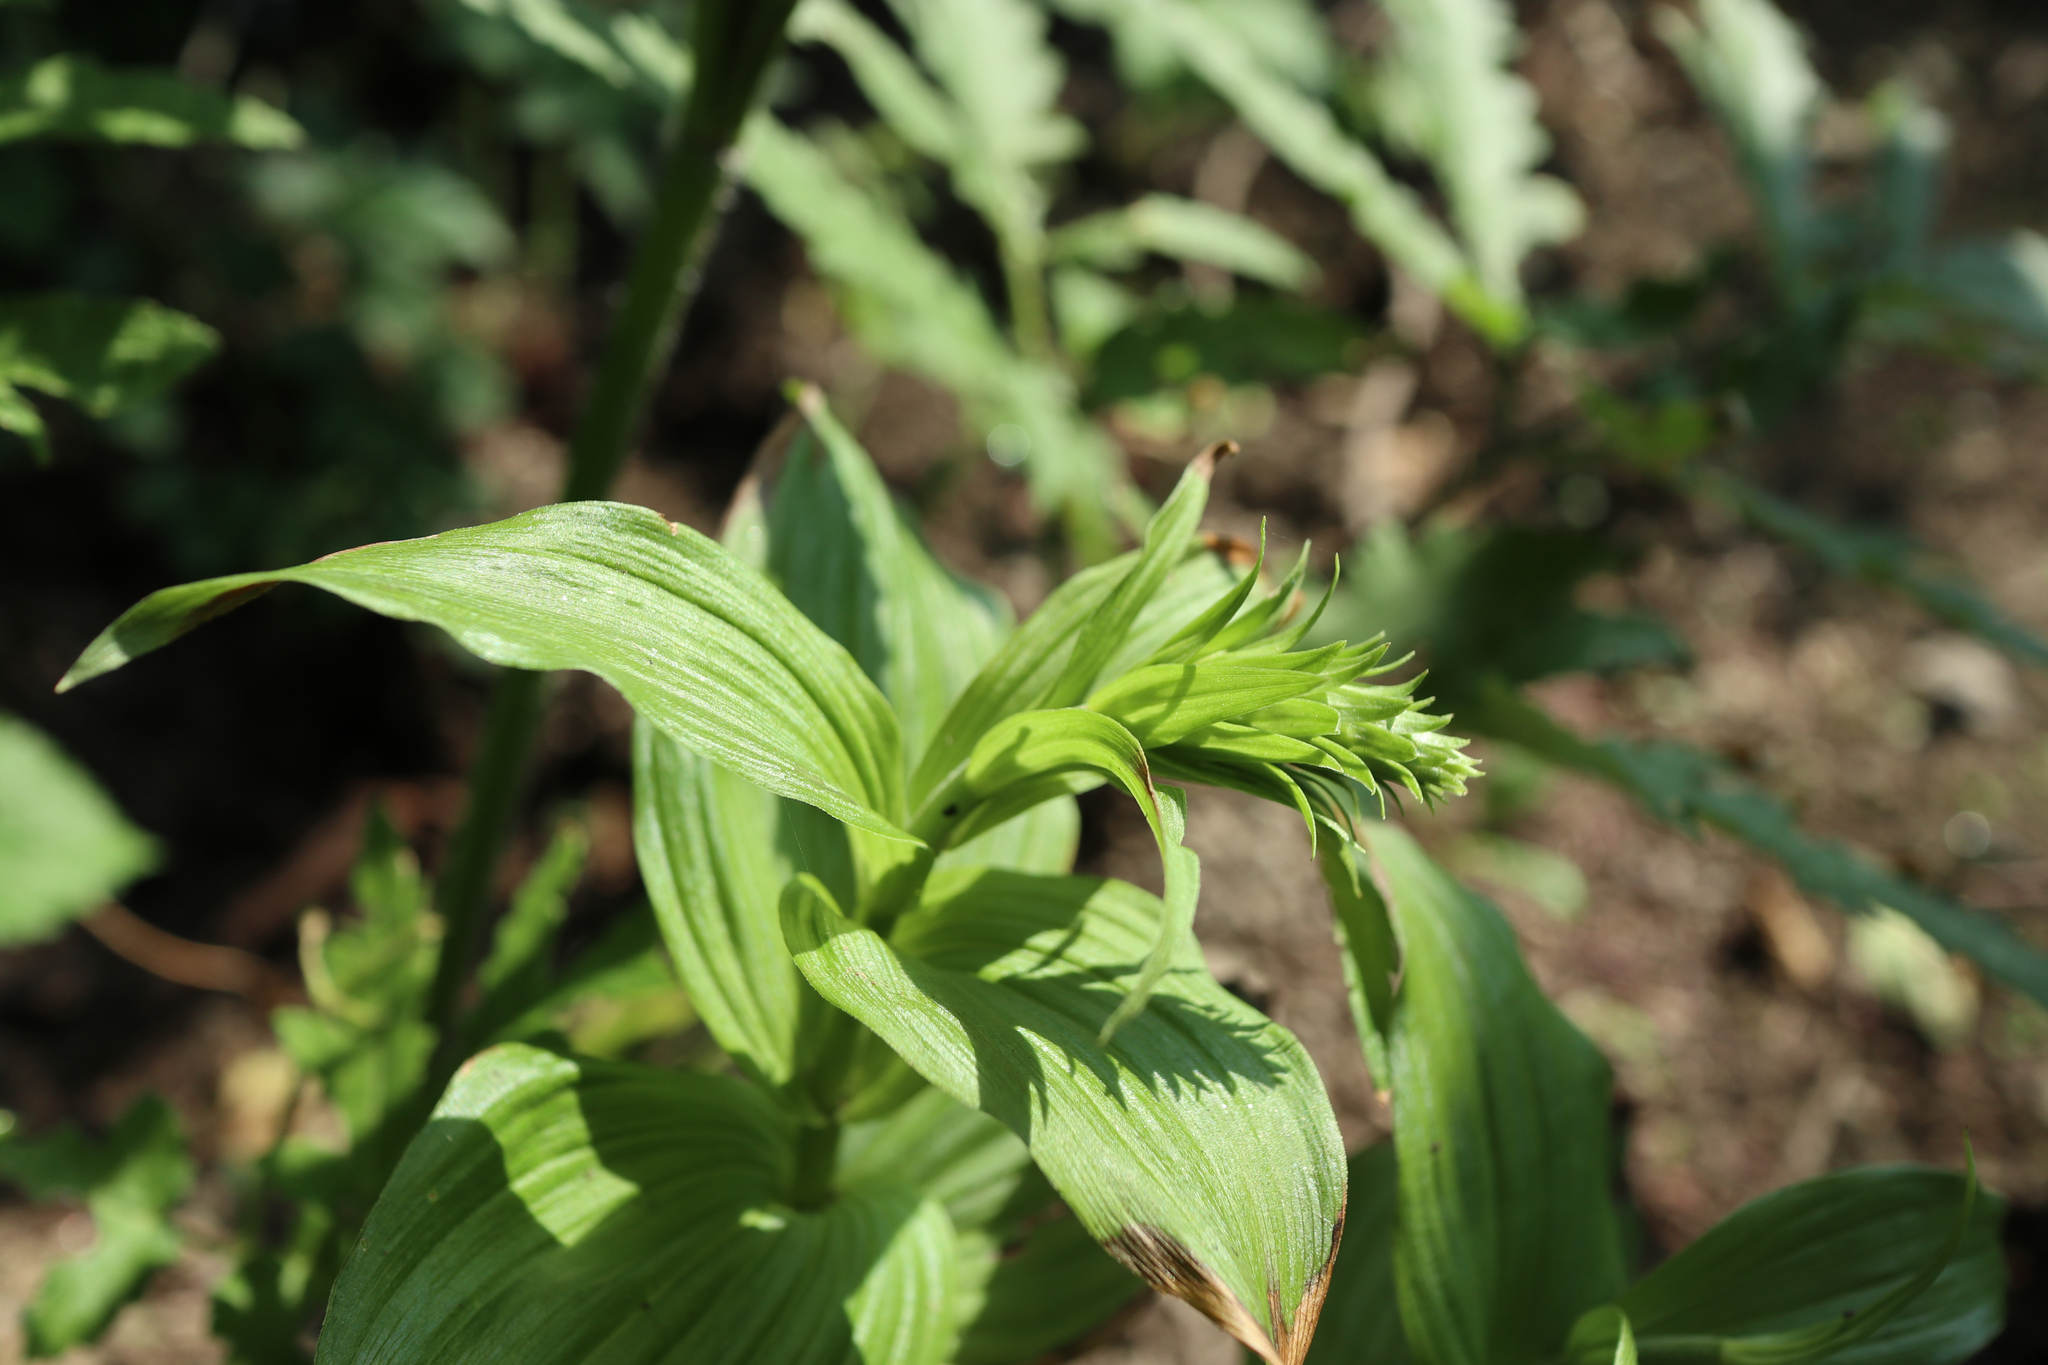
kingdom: Plantae
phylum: Tracheophyta
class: Liliopsida
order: Asparagales
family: Orchidaceae
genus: Epipactis
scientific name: Epipactis helleborine
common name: Broad-leaved helleborine
